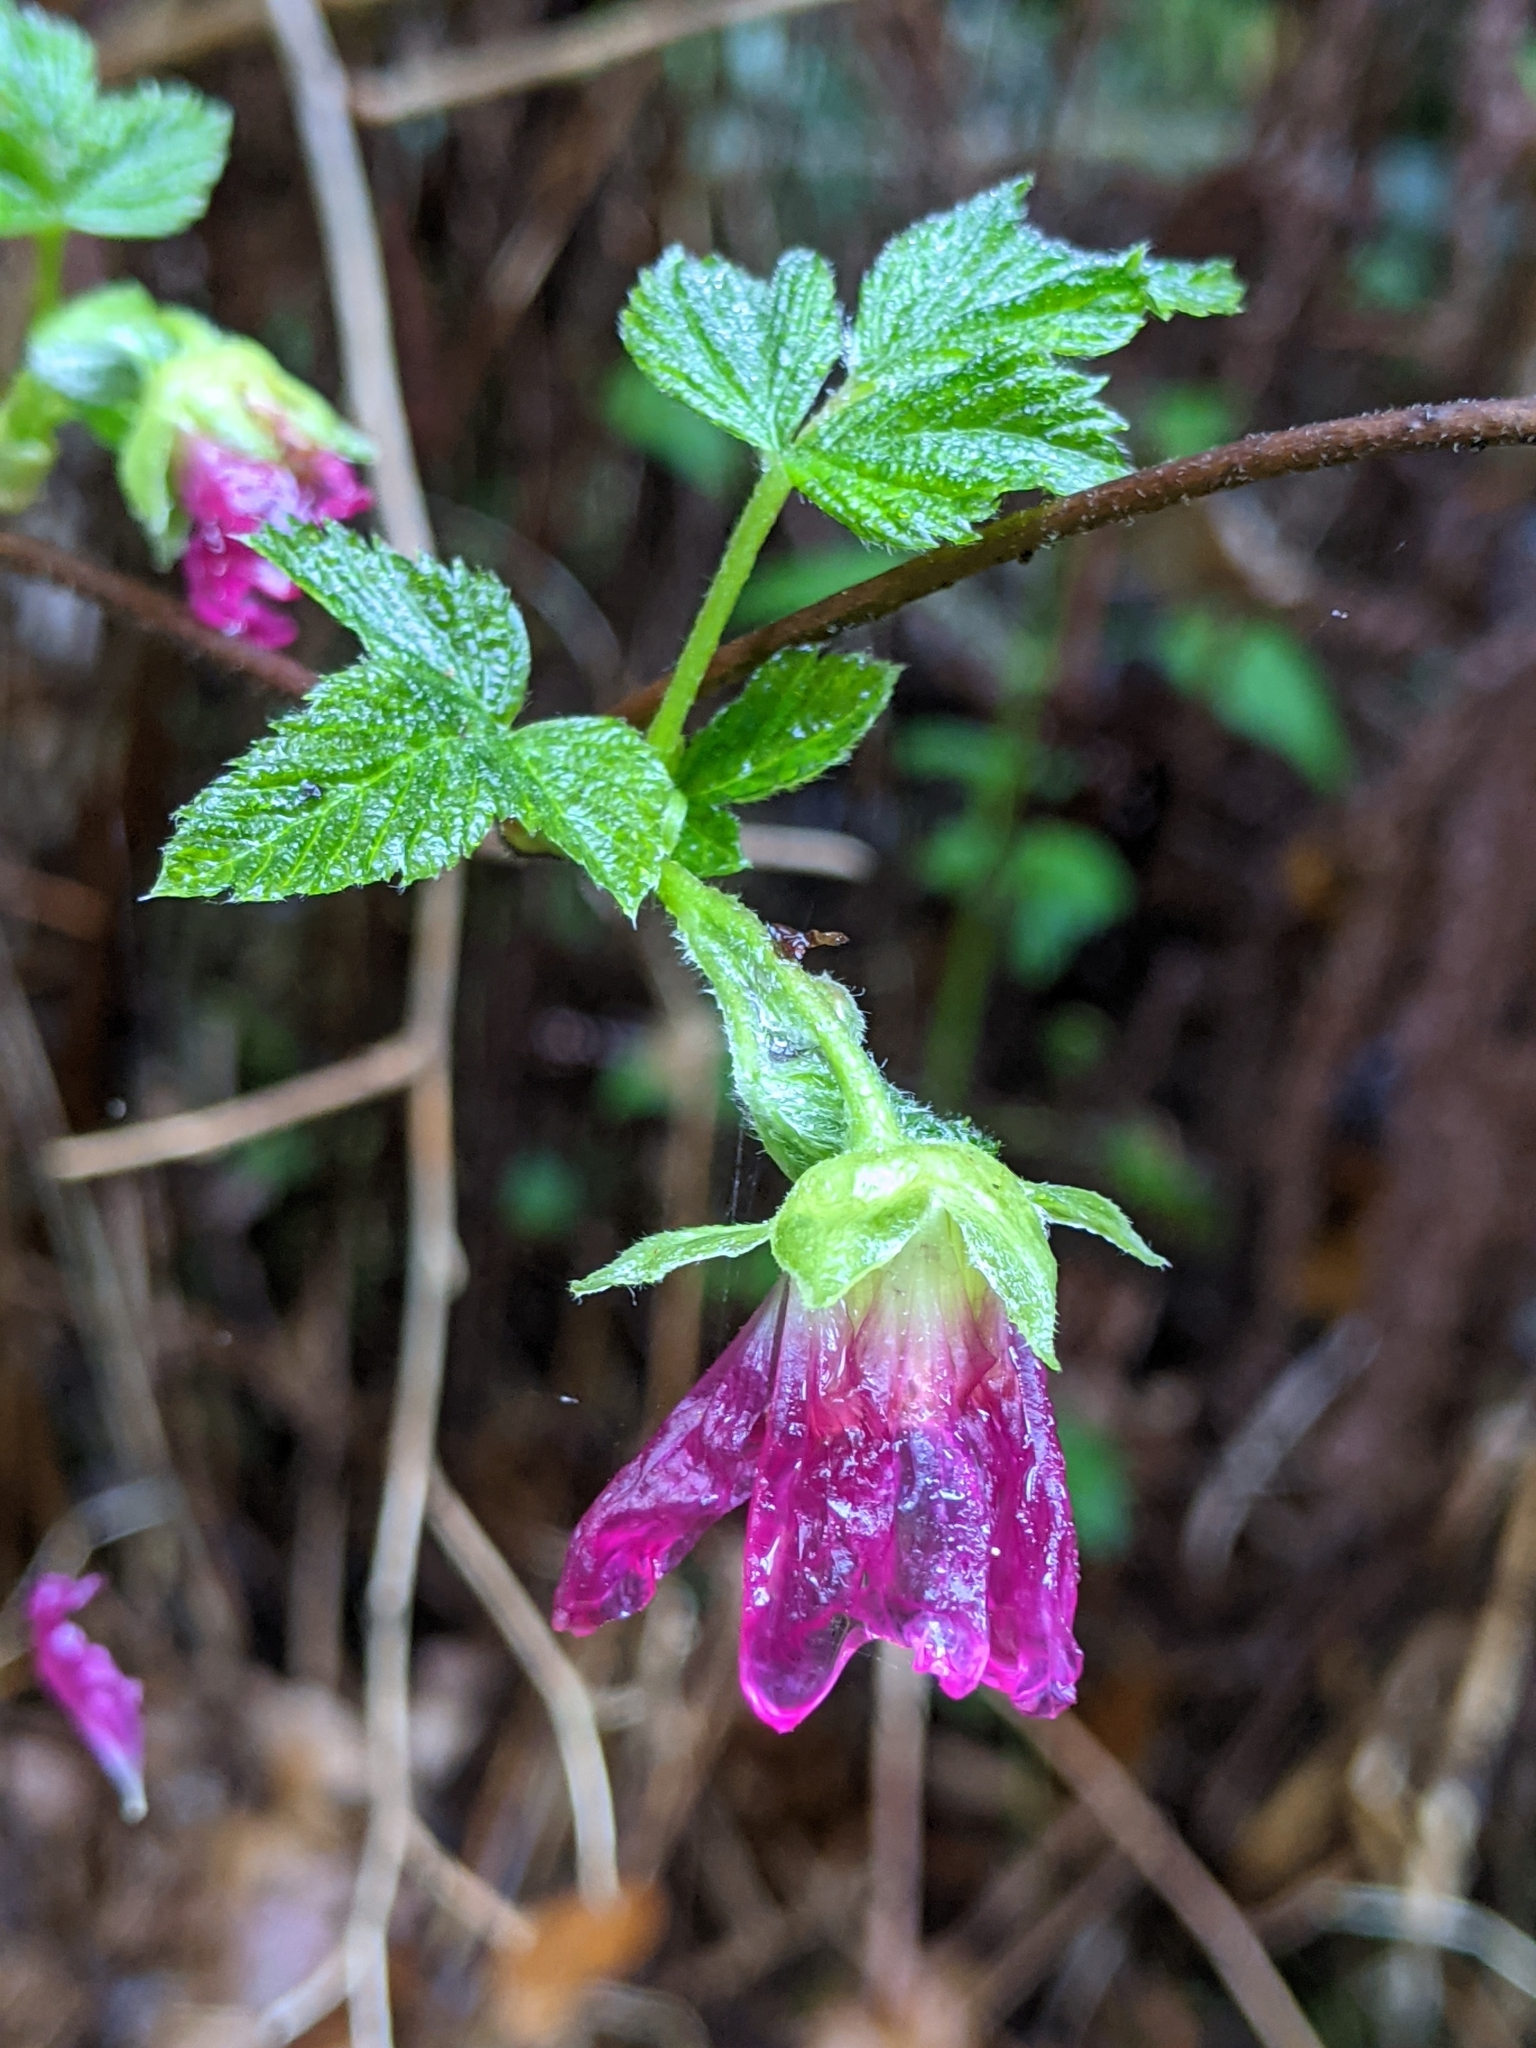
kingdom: Plantae
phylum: Tracheophyta
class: Magnoliopsida
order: Rosales
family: Rosaceae
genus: Rubus
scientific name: Rubus spectabilis
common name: Salmonberry
